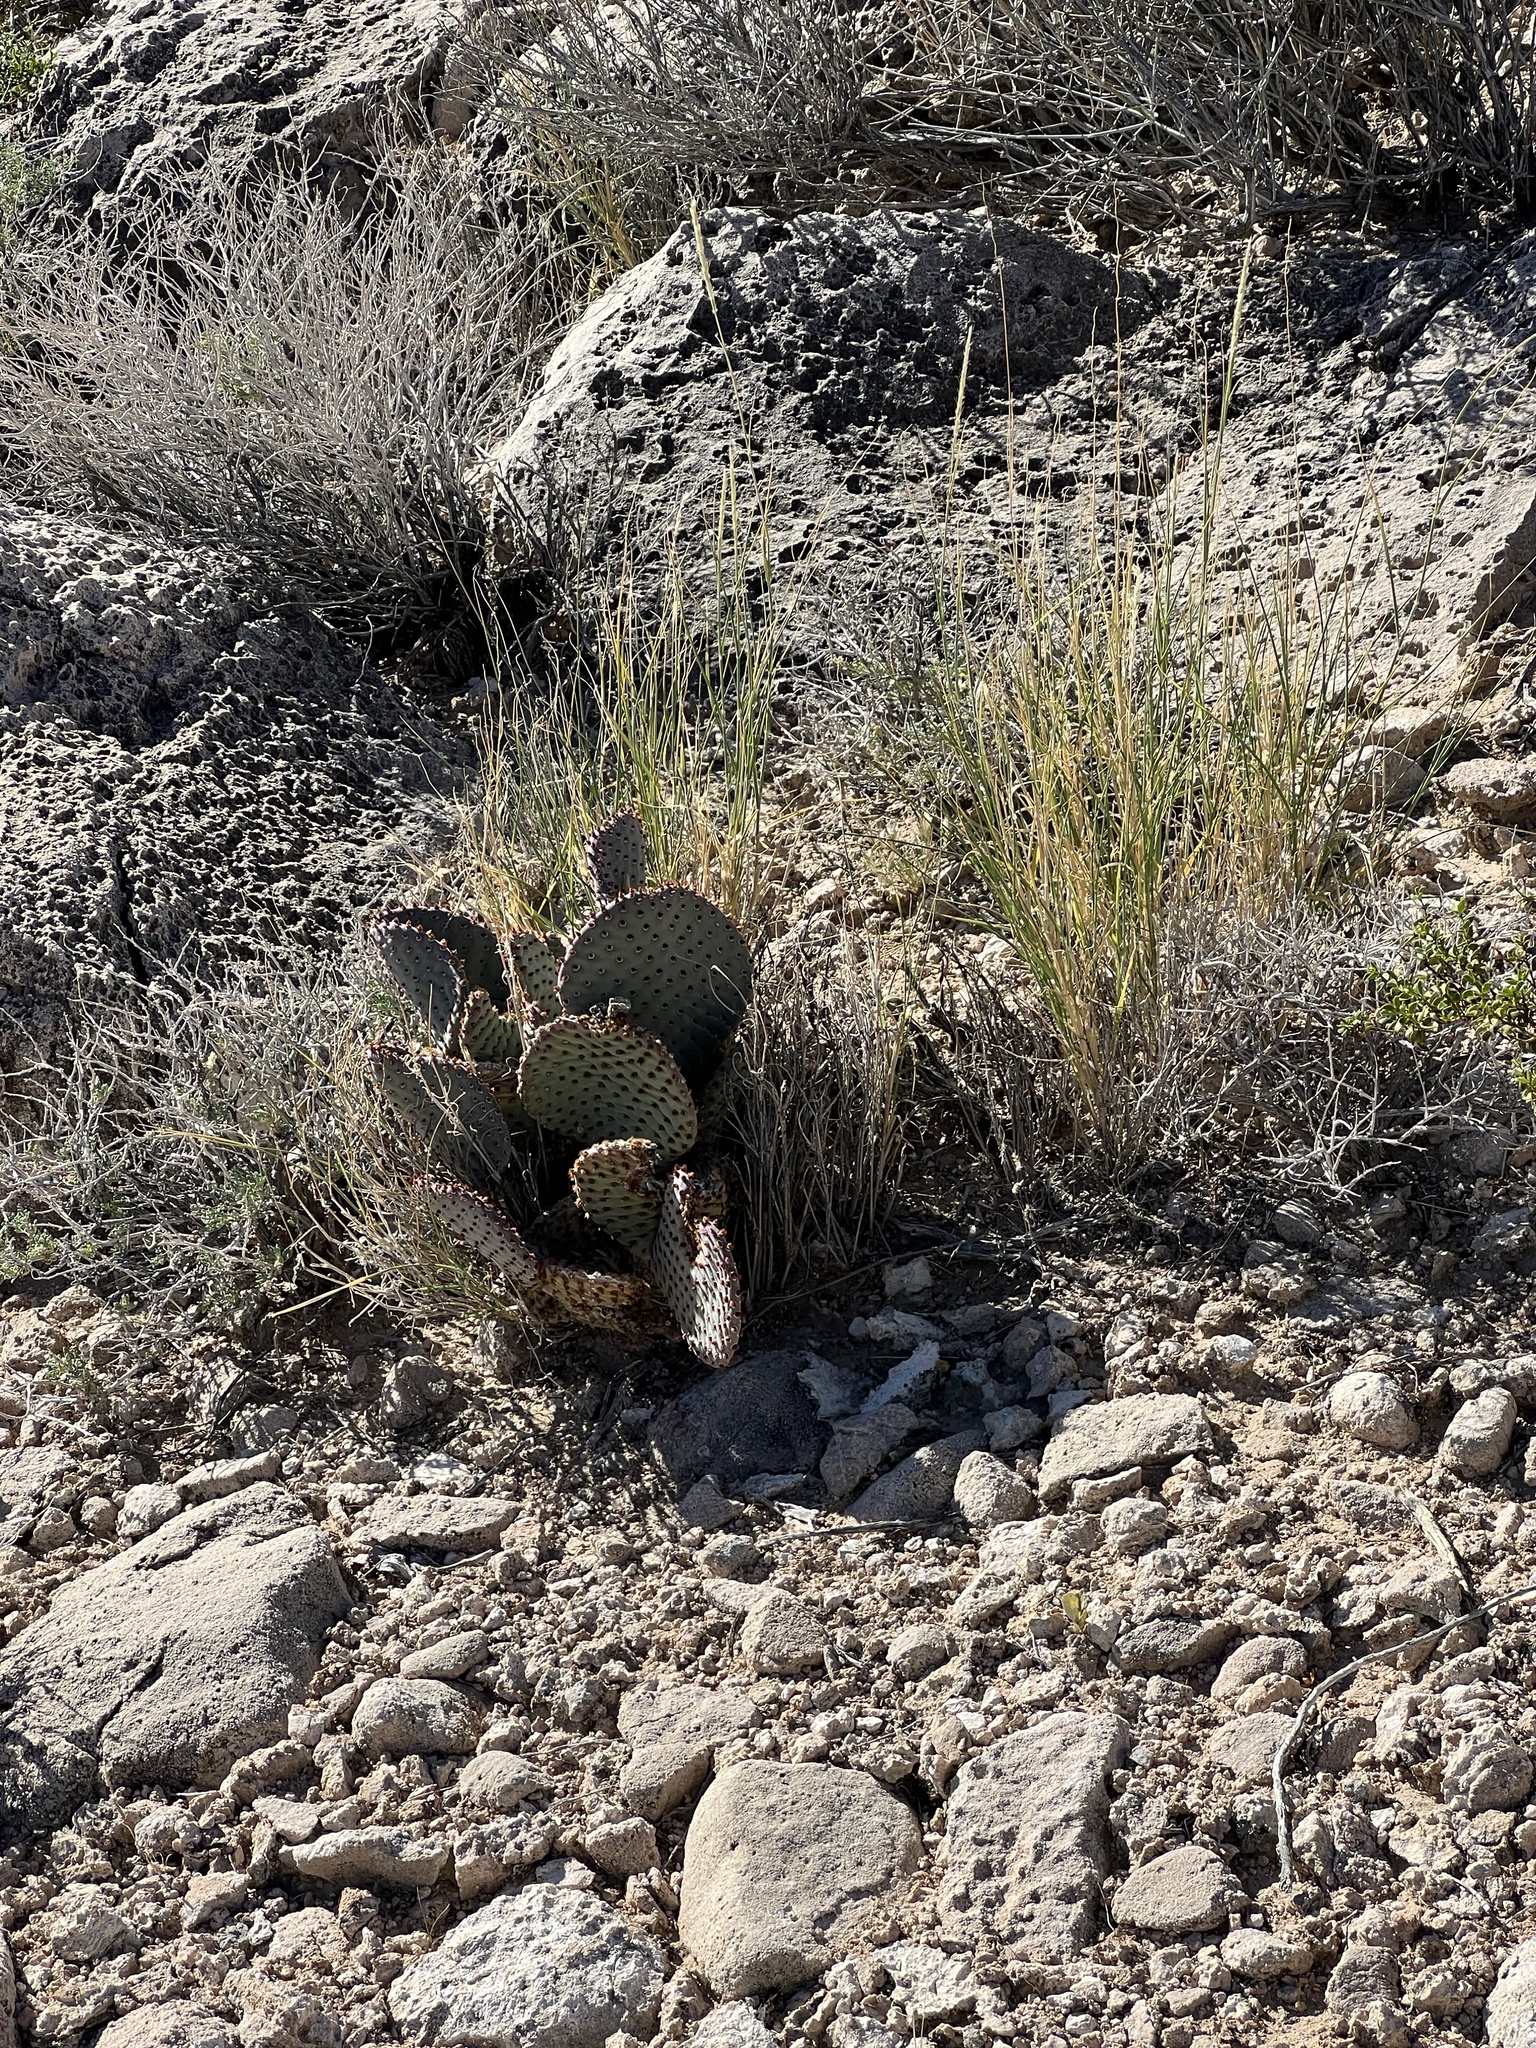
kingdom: Plantae
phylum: Tracheophyta
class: Magnoliopsida
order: Caryophyllales
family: Cactaceae
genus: Opuntia
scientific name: Opuntia basilaris
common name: Beavertail prickly-pear
